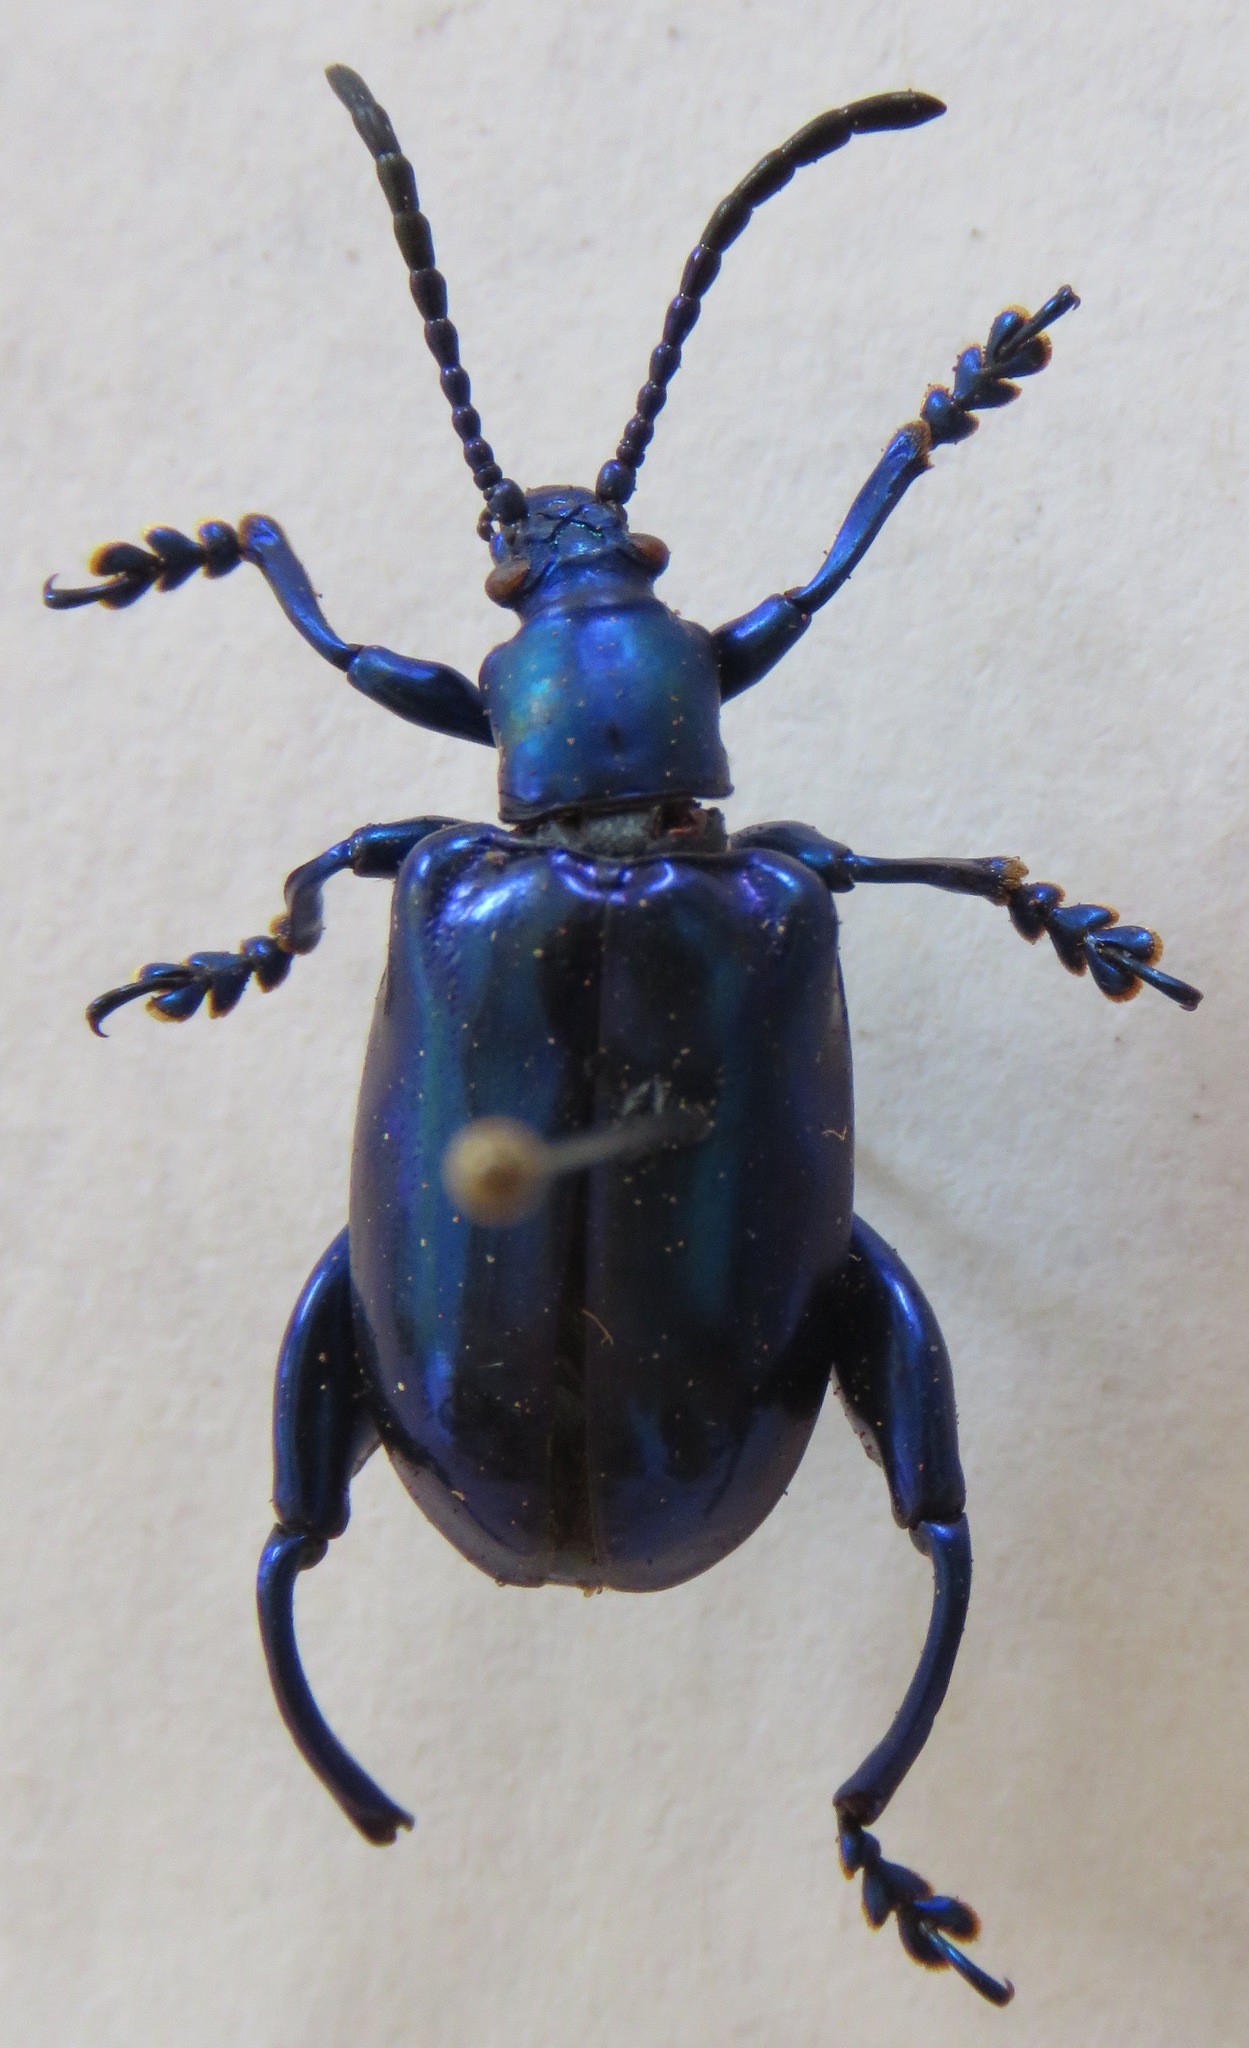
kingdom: Animalia
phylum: Arthropoda
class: Insecta
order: Coleoptera
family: Chrysomelidae
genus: Sagra
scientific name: Sagra femorata
